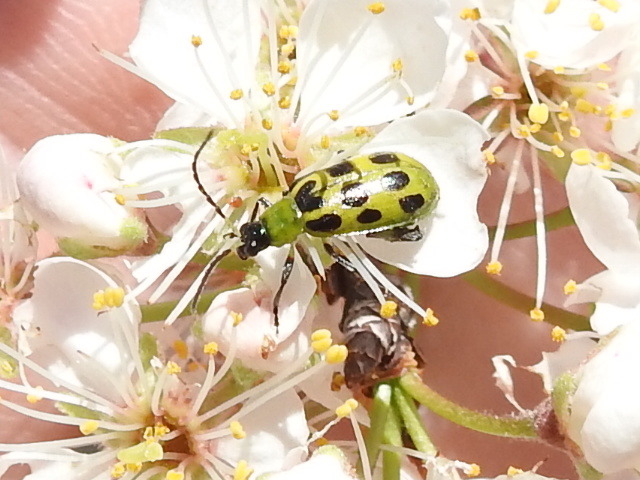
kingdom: Animalia
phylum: Arthropoda
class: Insecta
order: Coleoptera
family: Chrysomelidae
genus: Diabrotica
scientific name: Diabrotica undecimpunctata
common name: Spotted cucumber beetle
